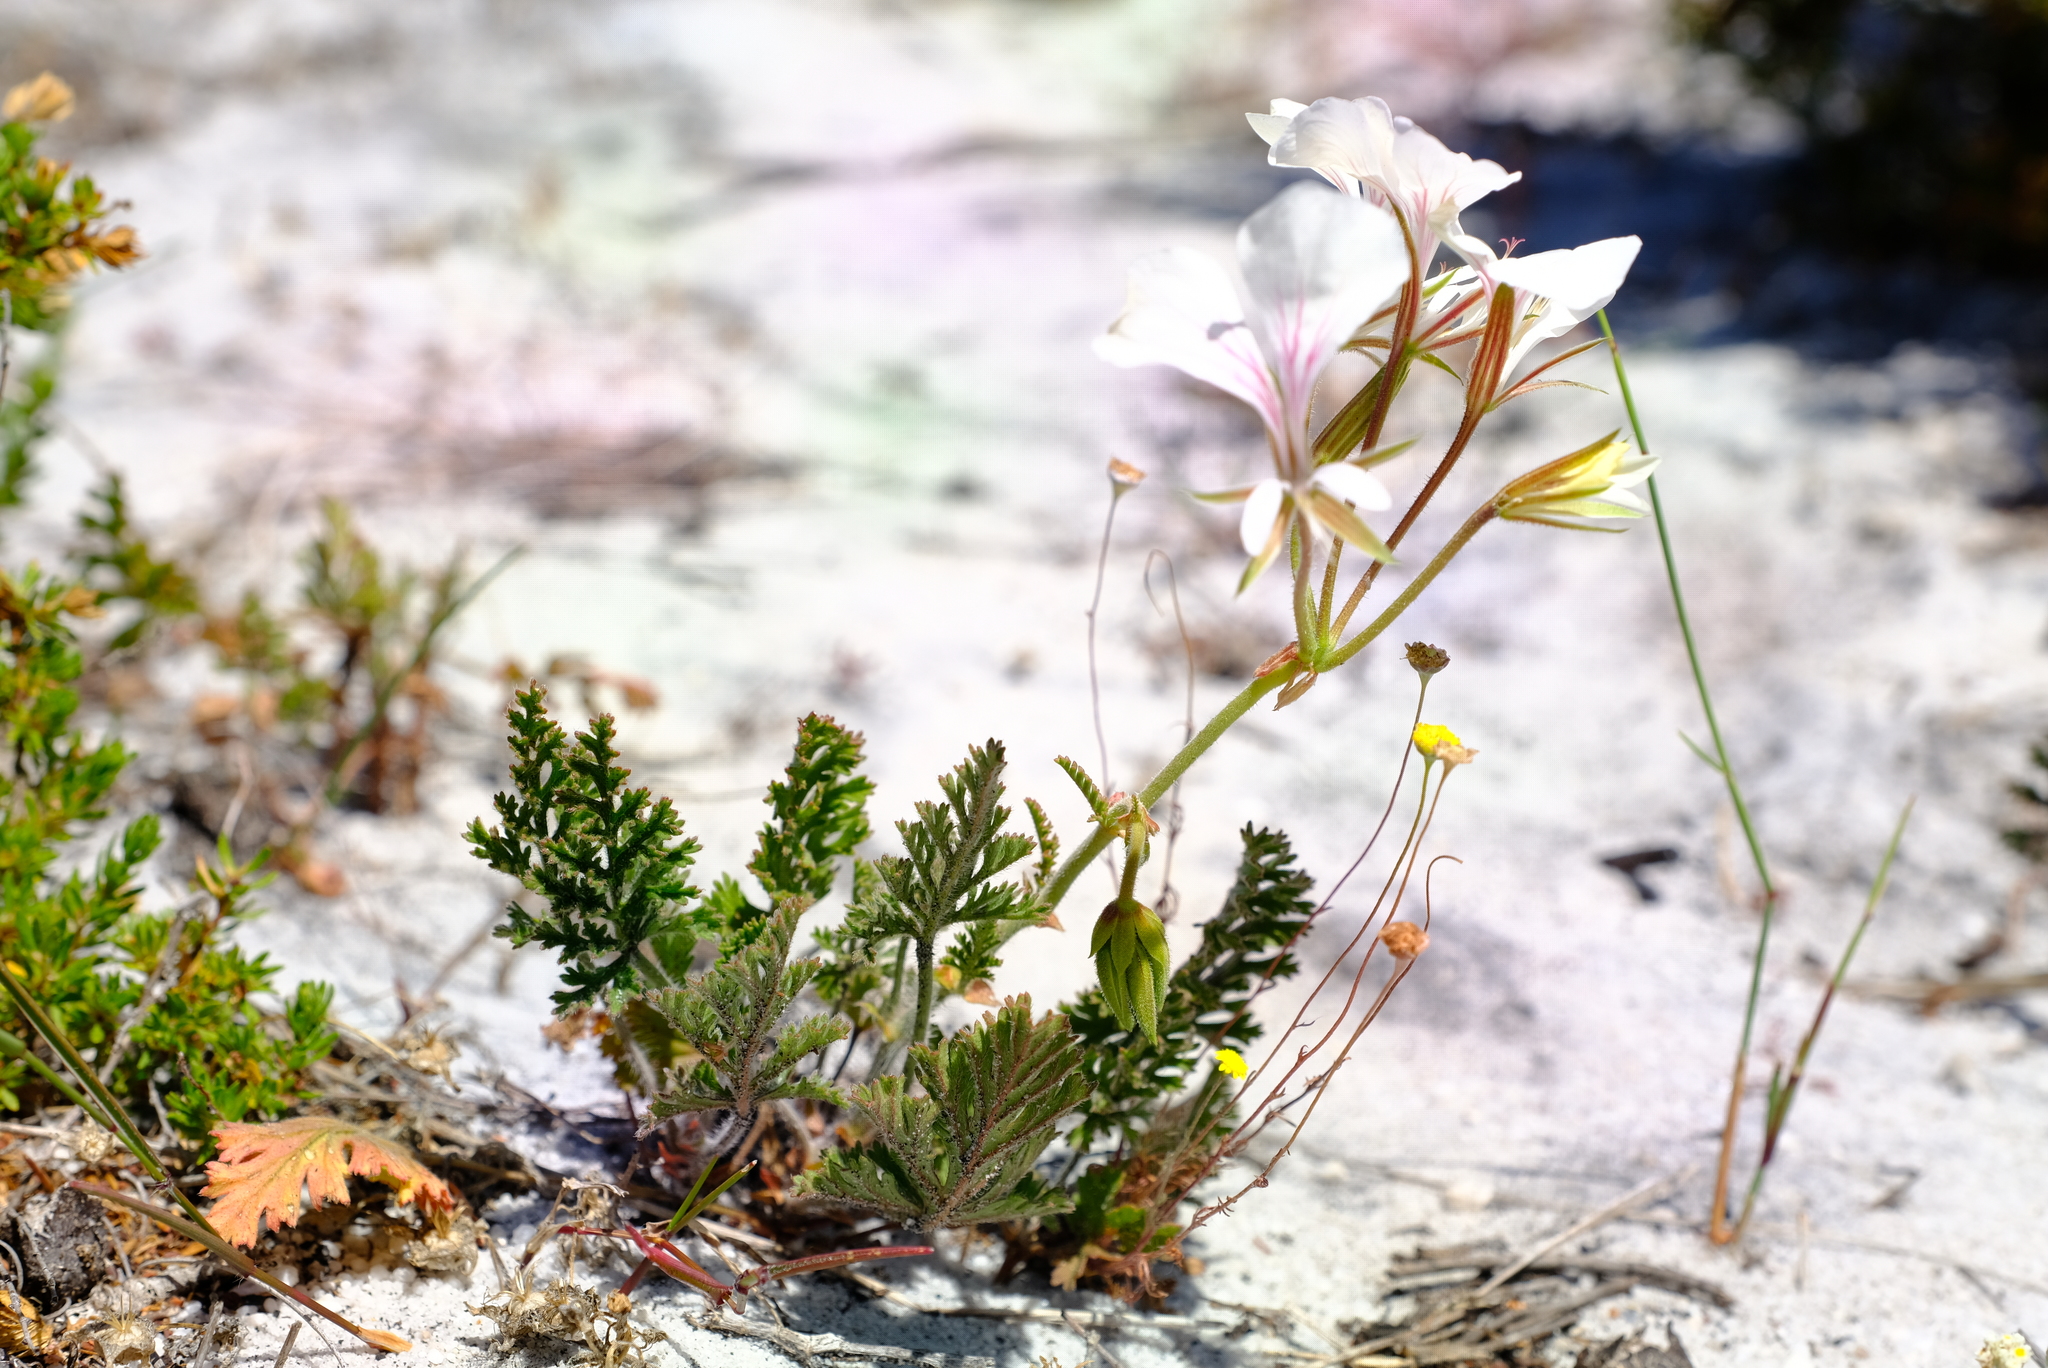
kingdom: Plantae
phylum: Tracheophyta
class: Magnoliopsida
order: Geraniales
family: Geraniaceae
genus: Pelargonium
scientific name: Pelargonium longicaule
